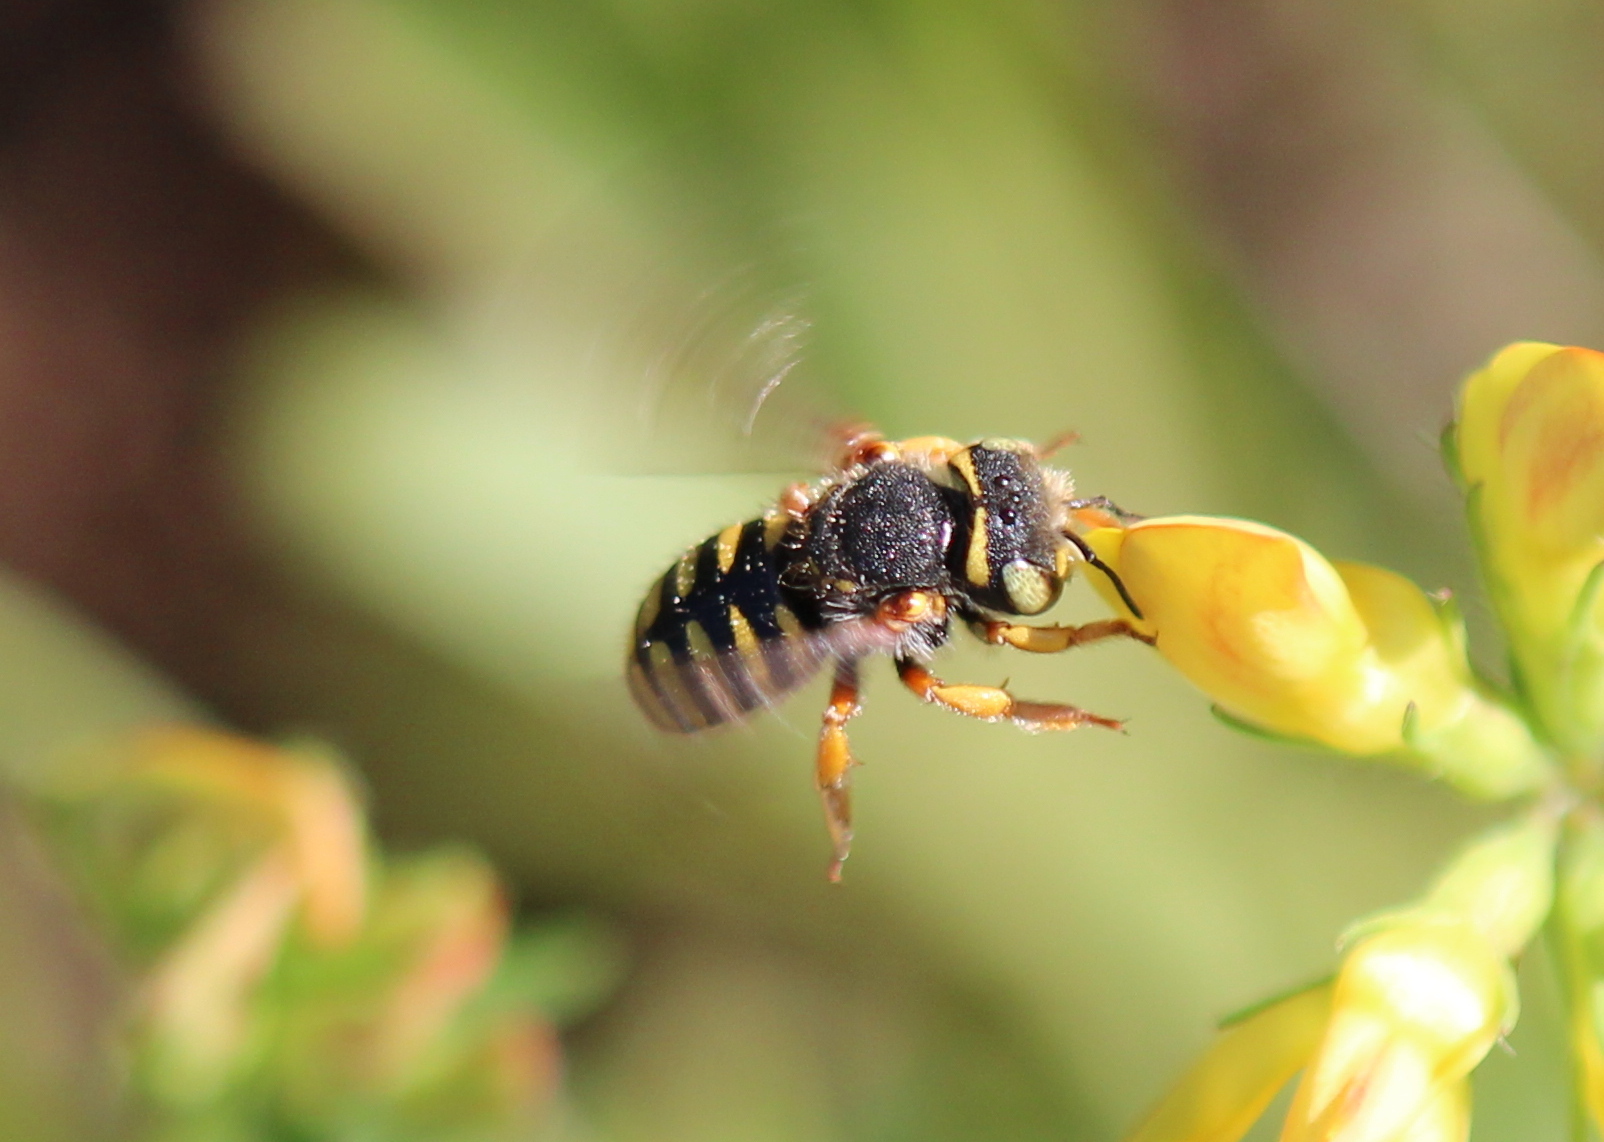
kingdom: Animalia
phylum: Arthropoda
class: Insecta
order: Hymenoptera
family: Megachilidae
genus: Anthidium
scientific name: Anthidium oblongatum
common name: Oblong wool carder bee
